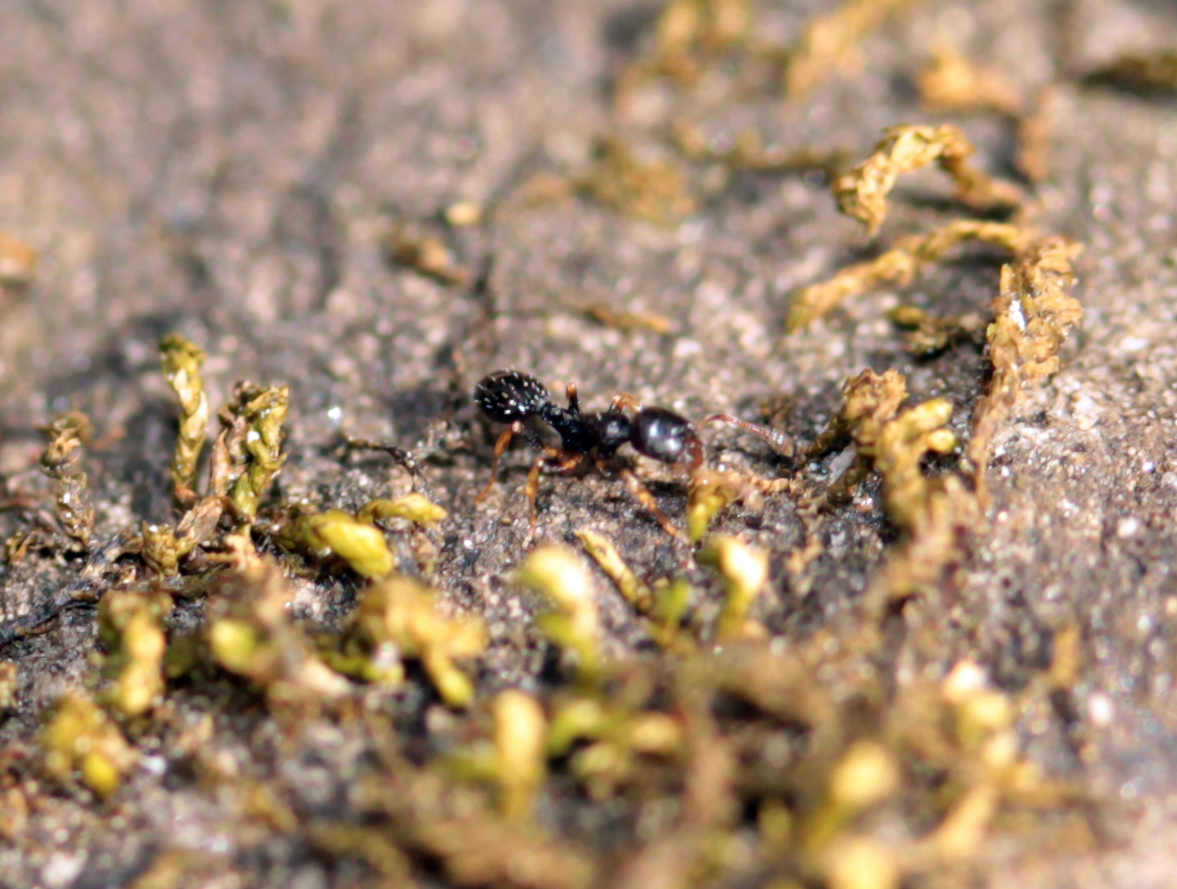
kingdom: Animalia
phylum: Arthropoda
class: Insecta
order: Hymenoptera
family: Formicidae
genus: Temnothorax
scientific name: Temnothorax longispinosus
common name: Long-spined acorn ant
